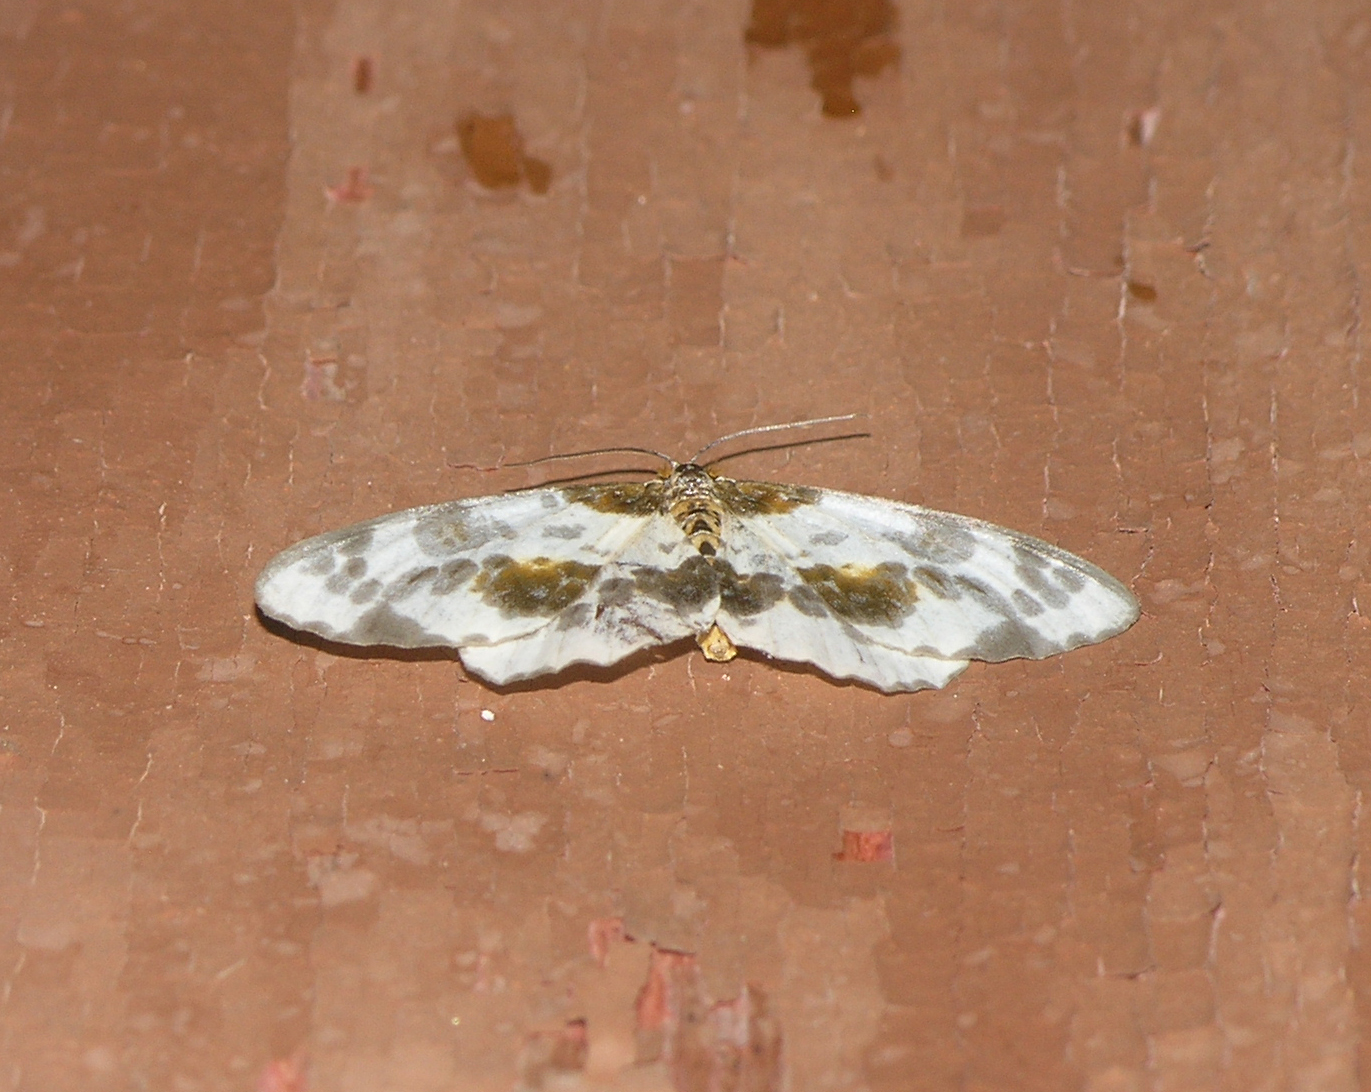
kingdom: Animalia
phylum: Arthropoda
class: Insecta
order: Lepidoptera
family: Geometridae
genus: Abraxas
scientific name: Abraxas sylvata
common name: Clouded magpie
